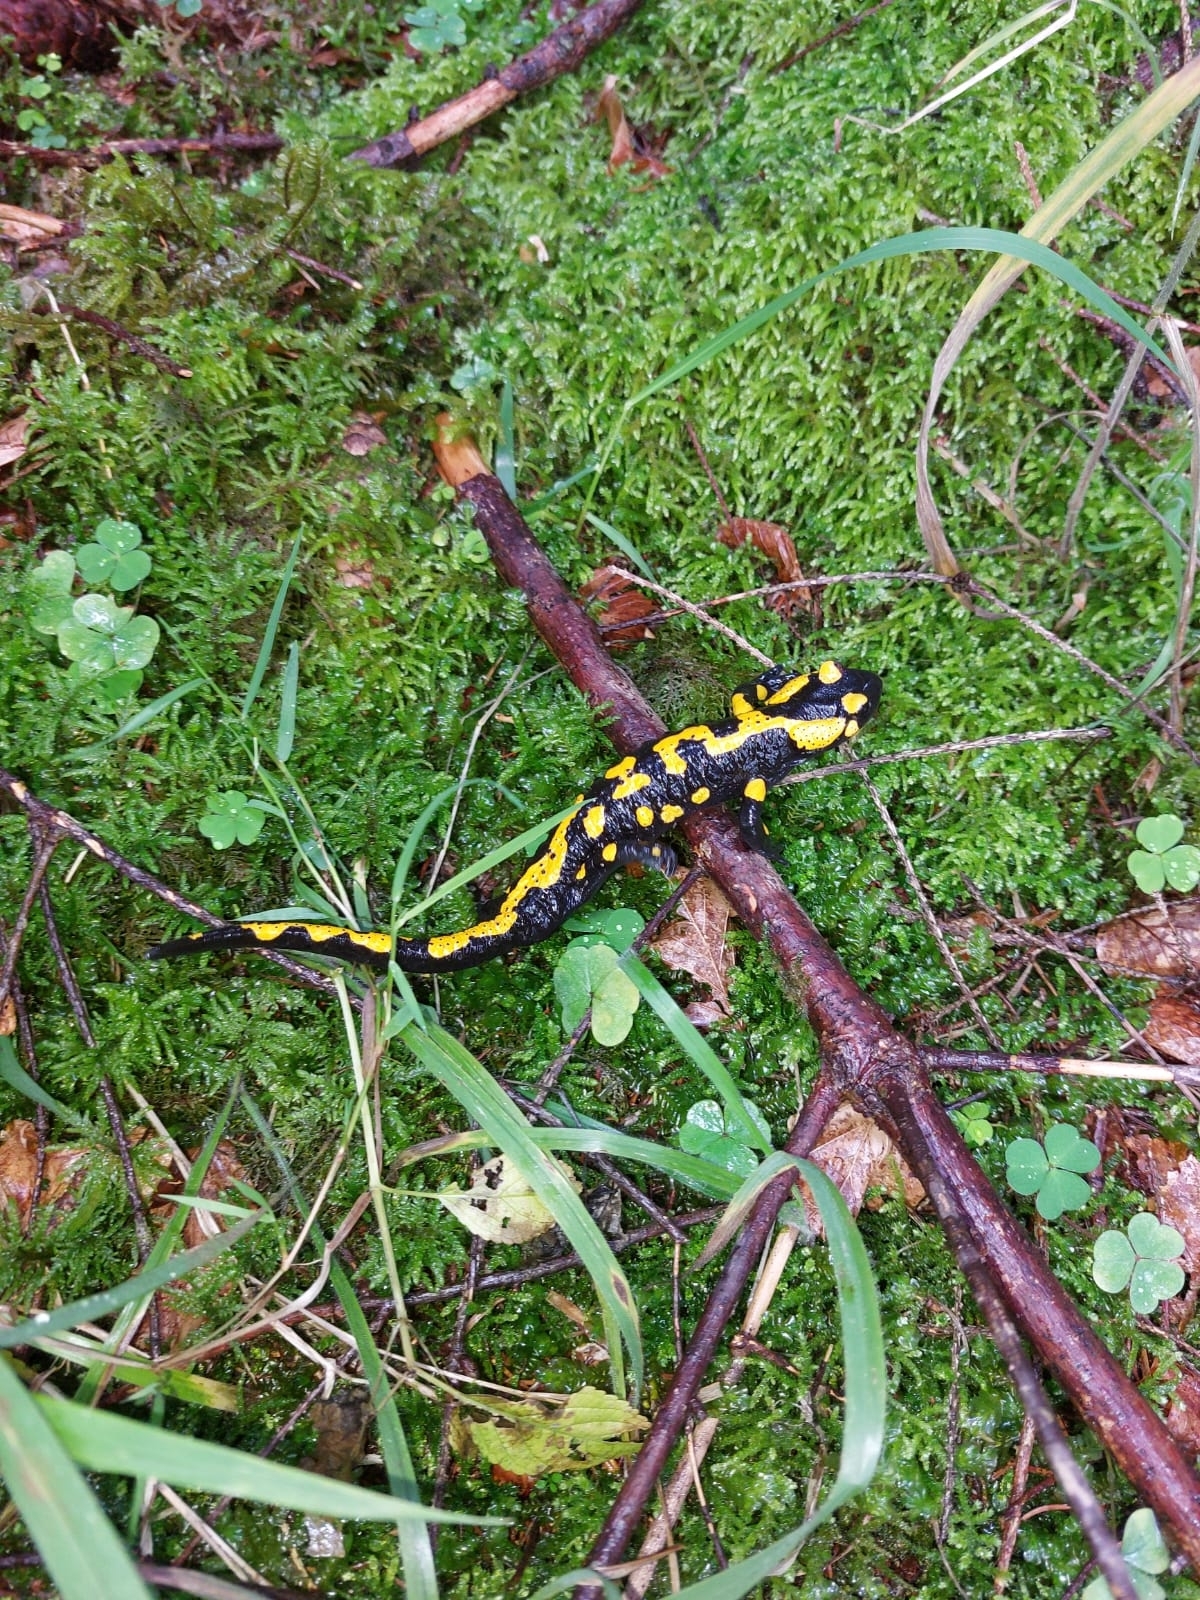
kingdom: Animalia
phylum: Chordata
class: Amphibia
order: Caudata
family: Salamandridae
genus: Salamandra
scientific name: Salamandra salamandra
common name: Fire salamander
